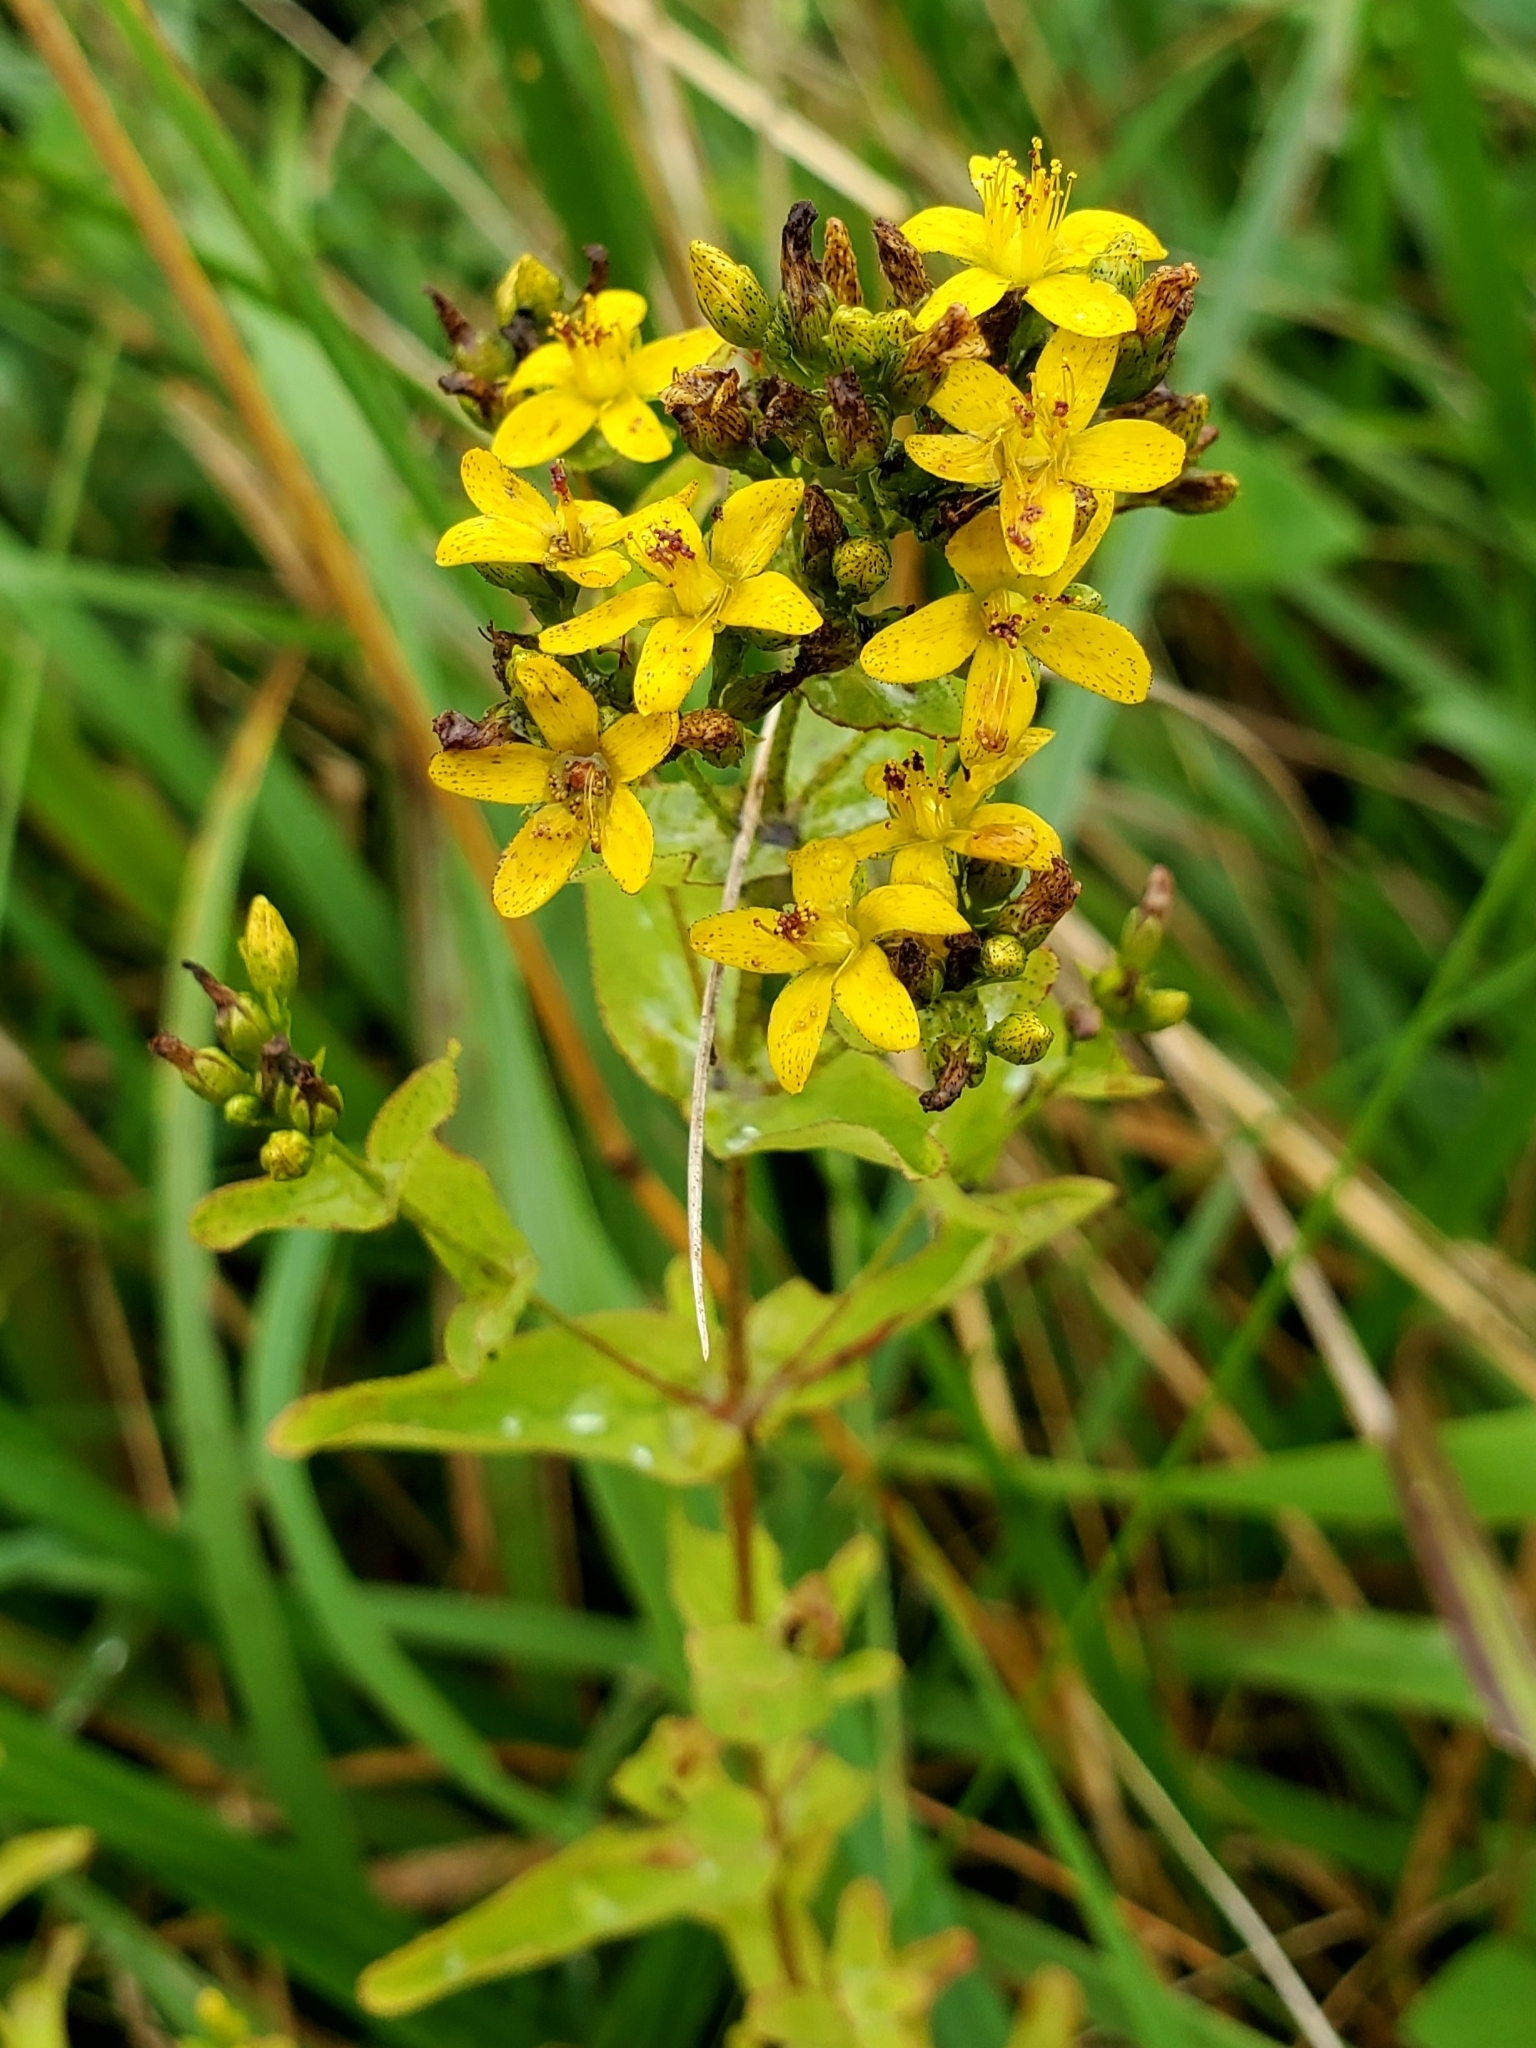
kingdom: Plantae
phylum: Tracheophyta
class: Magnoliopsida
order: Malpighiales
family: Hypericaceae
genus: Hypericum
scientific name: Hypericum punctatum
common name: Spotted st. john's-wort
